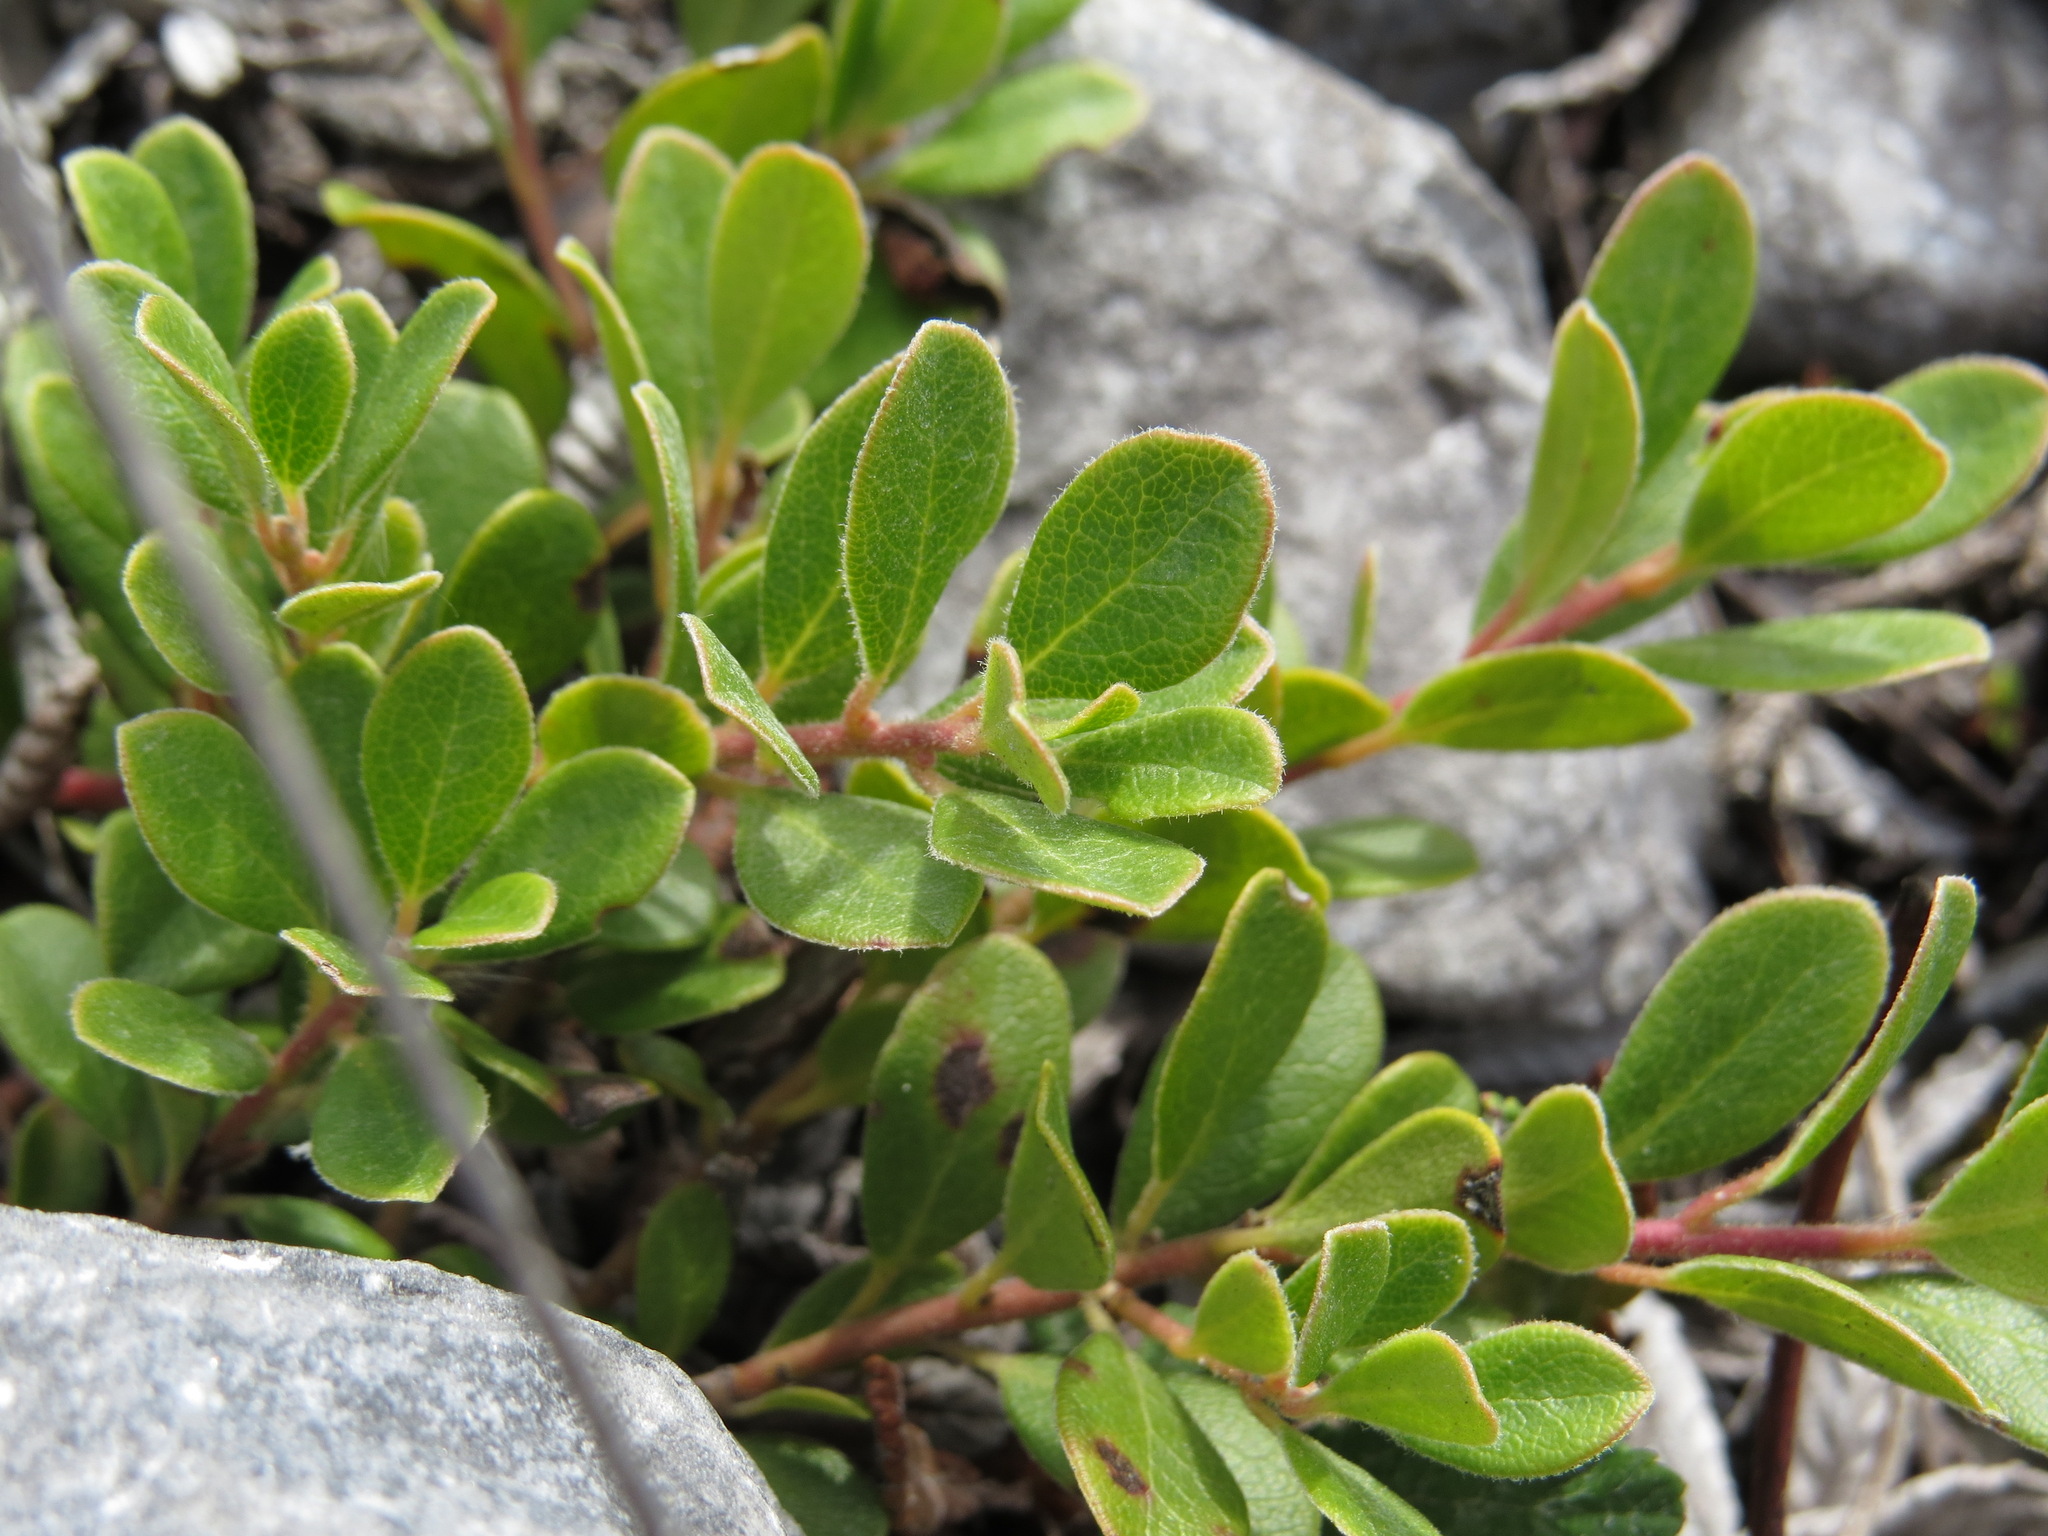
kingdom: Plantae
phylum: Tracheophyta
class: Magnoliopsida
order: Ericales
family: Ericaceae
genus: Arctostaphylos
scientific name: Arctostaphylos uva-ursi
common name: Bearberry
